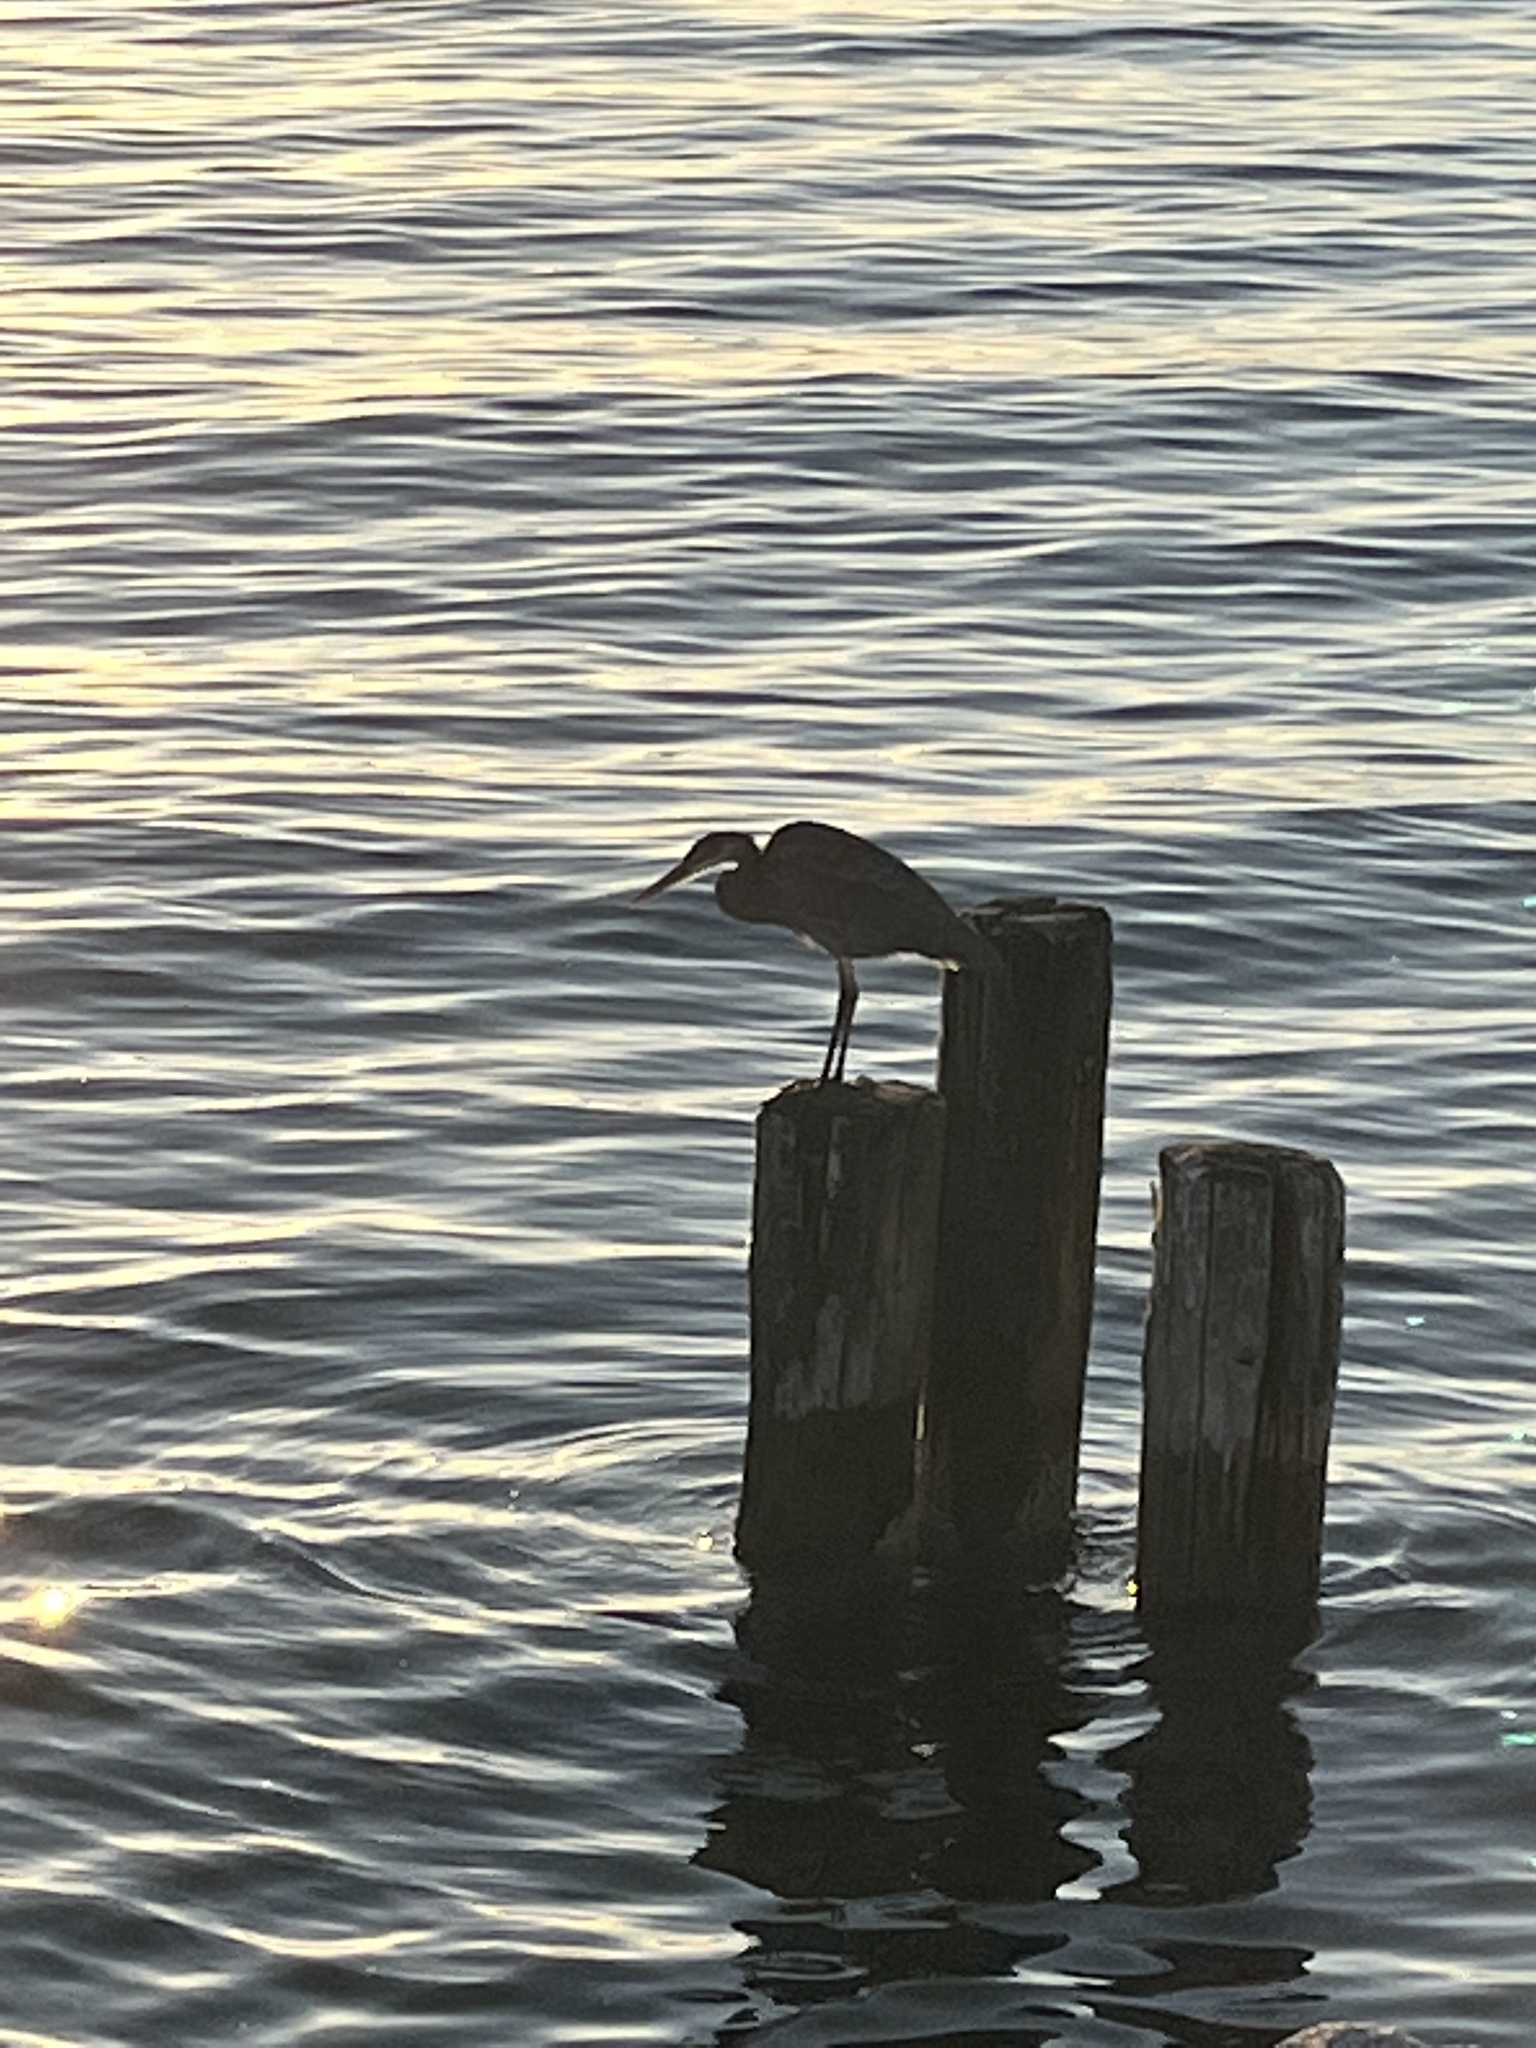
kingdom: Animalia
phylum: Chordata
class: Aves
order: Pelecaniformes
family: Ardeidae
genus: Ardea
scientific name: Ardea herodias
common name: Great blue heron
